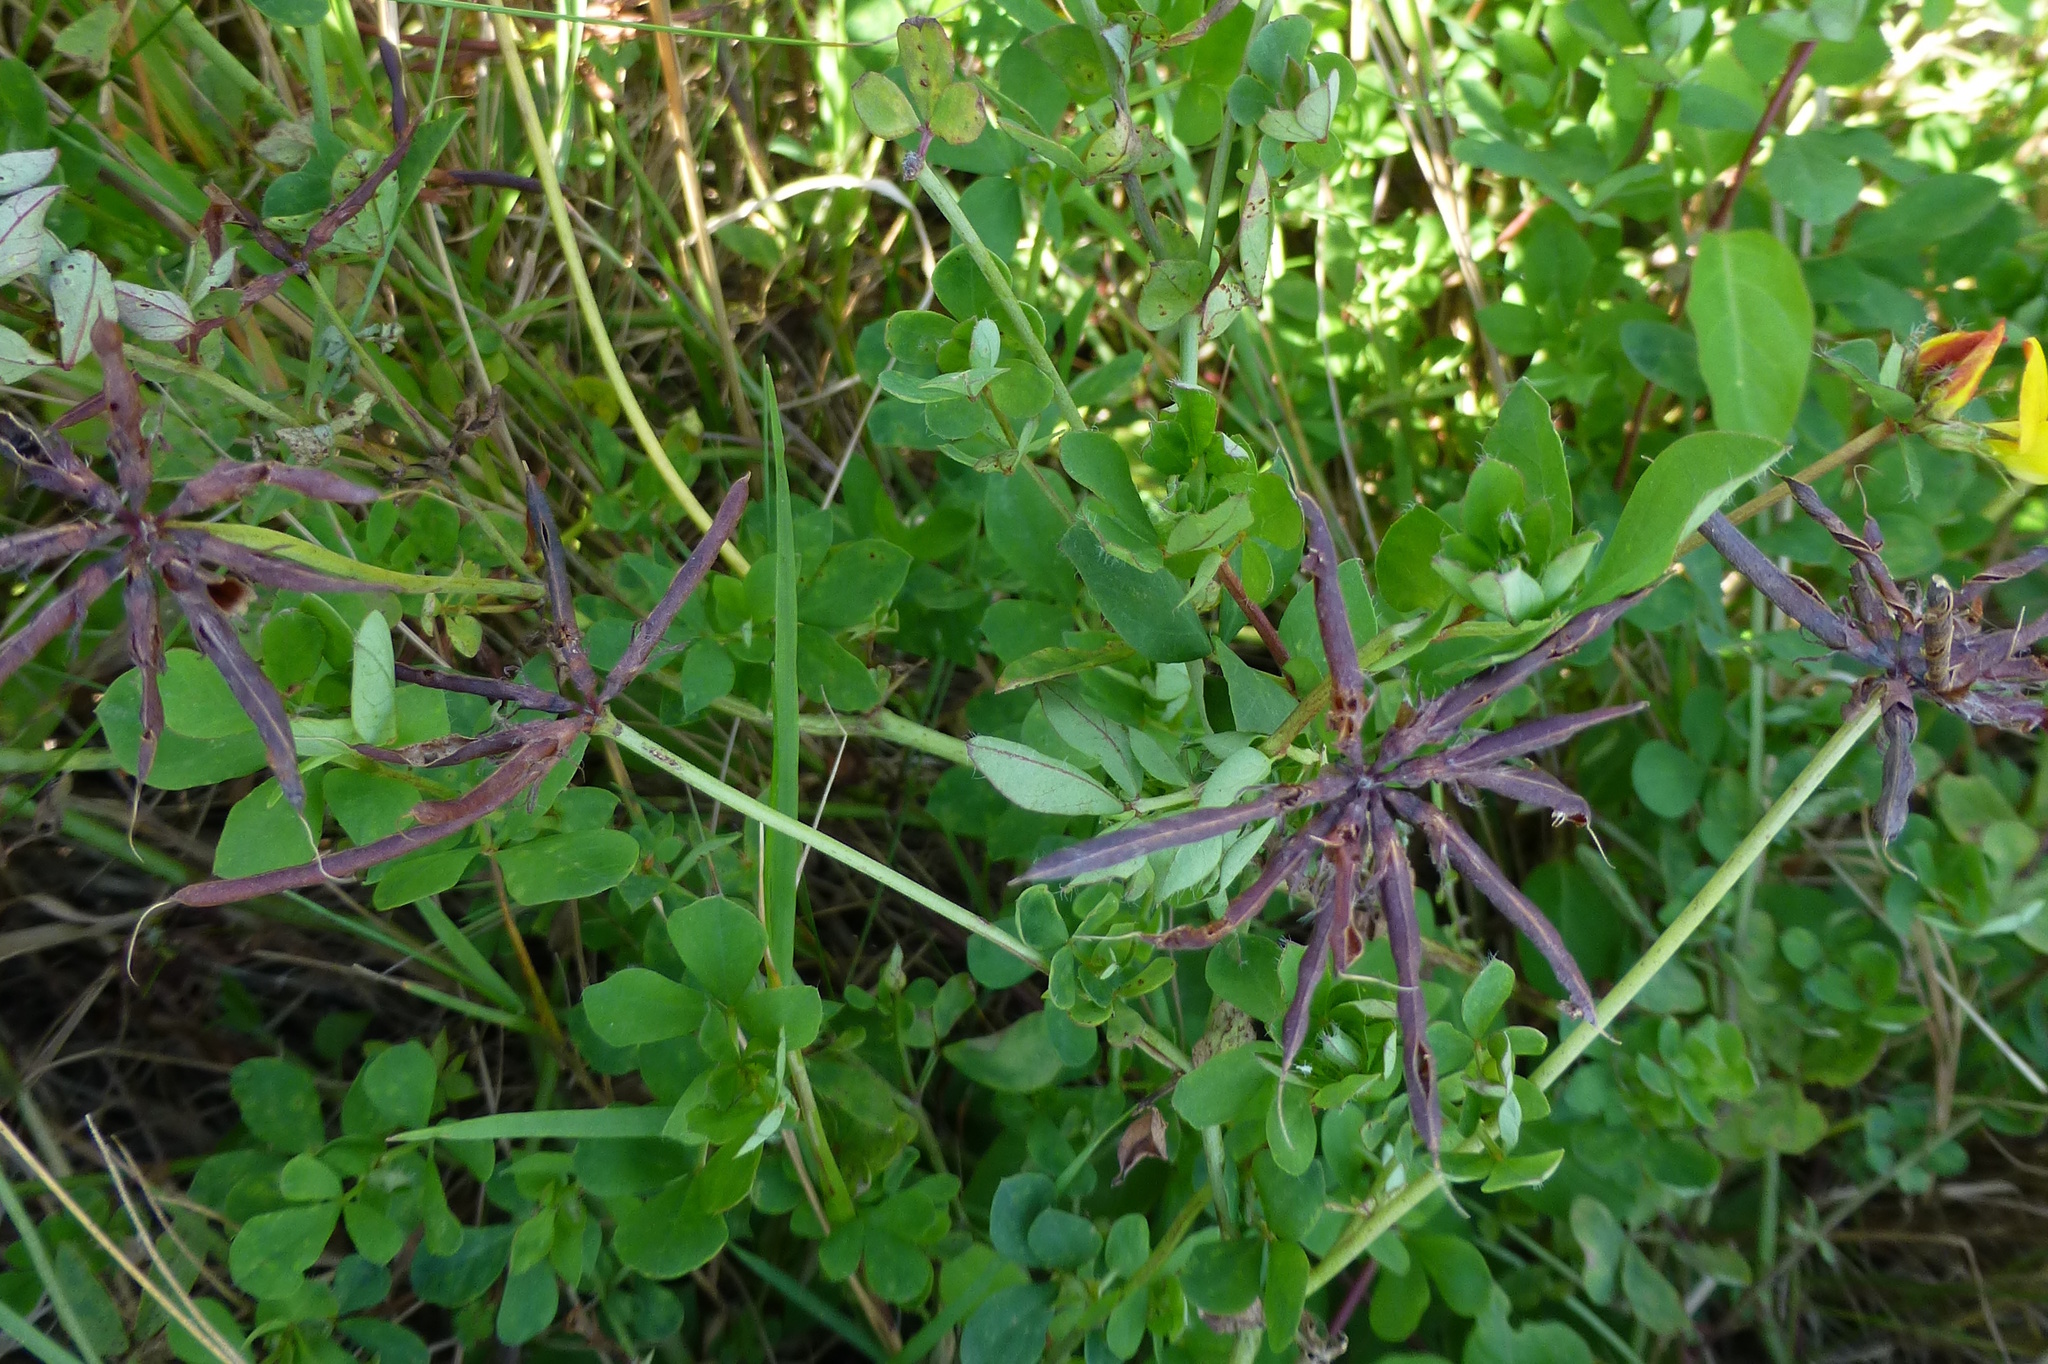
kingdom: Plantae
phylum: Tracheophyta
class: Magnoliopsida
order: Fabales
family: Fabaceae
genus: Lotus
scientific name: Lotus pedunculatus
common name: Greater birdsfoot-trefoil
